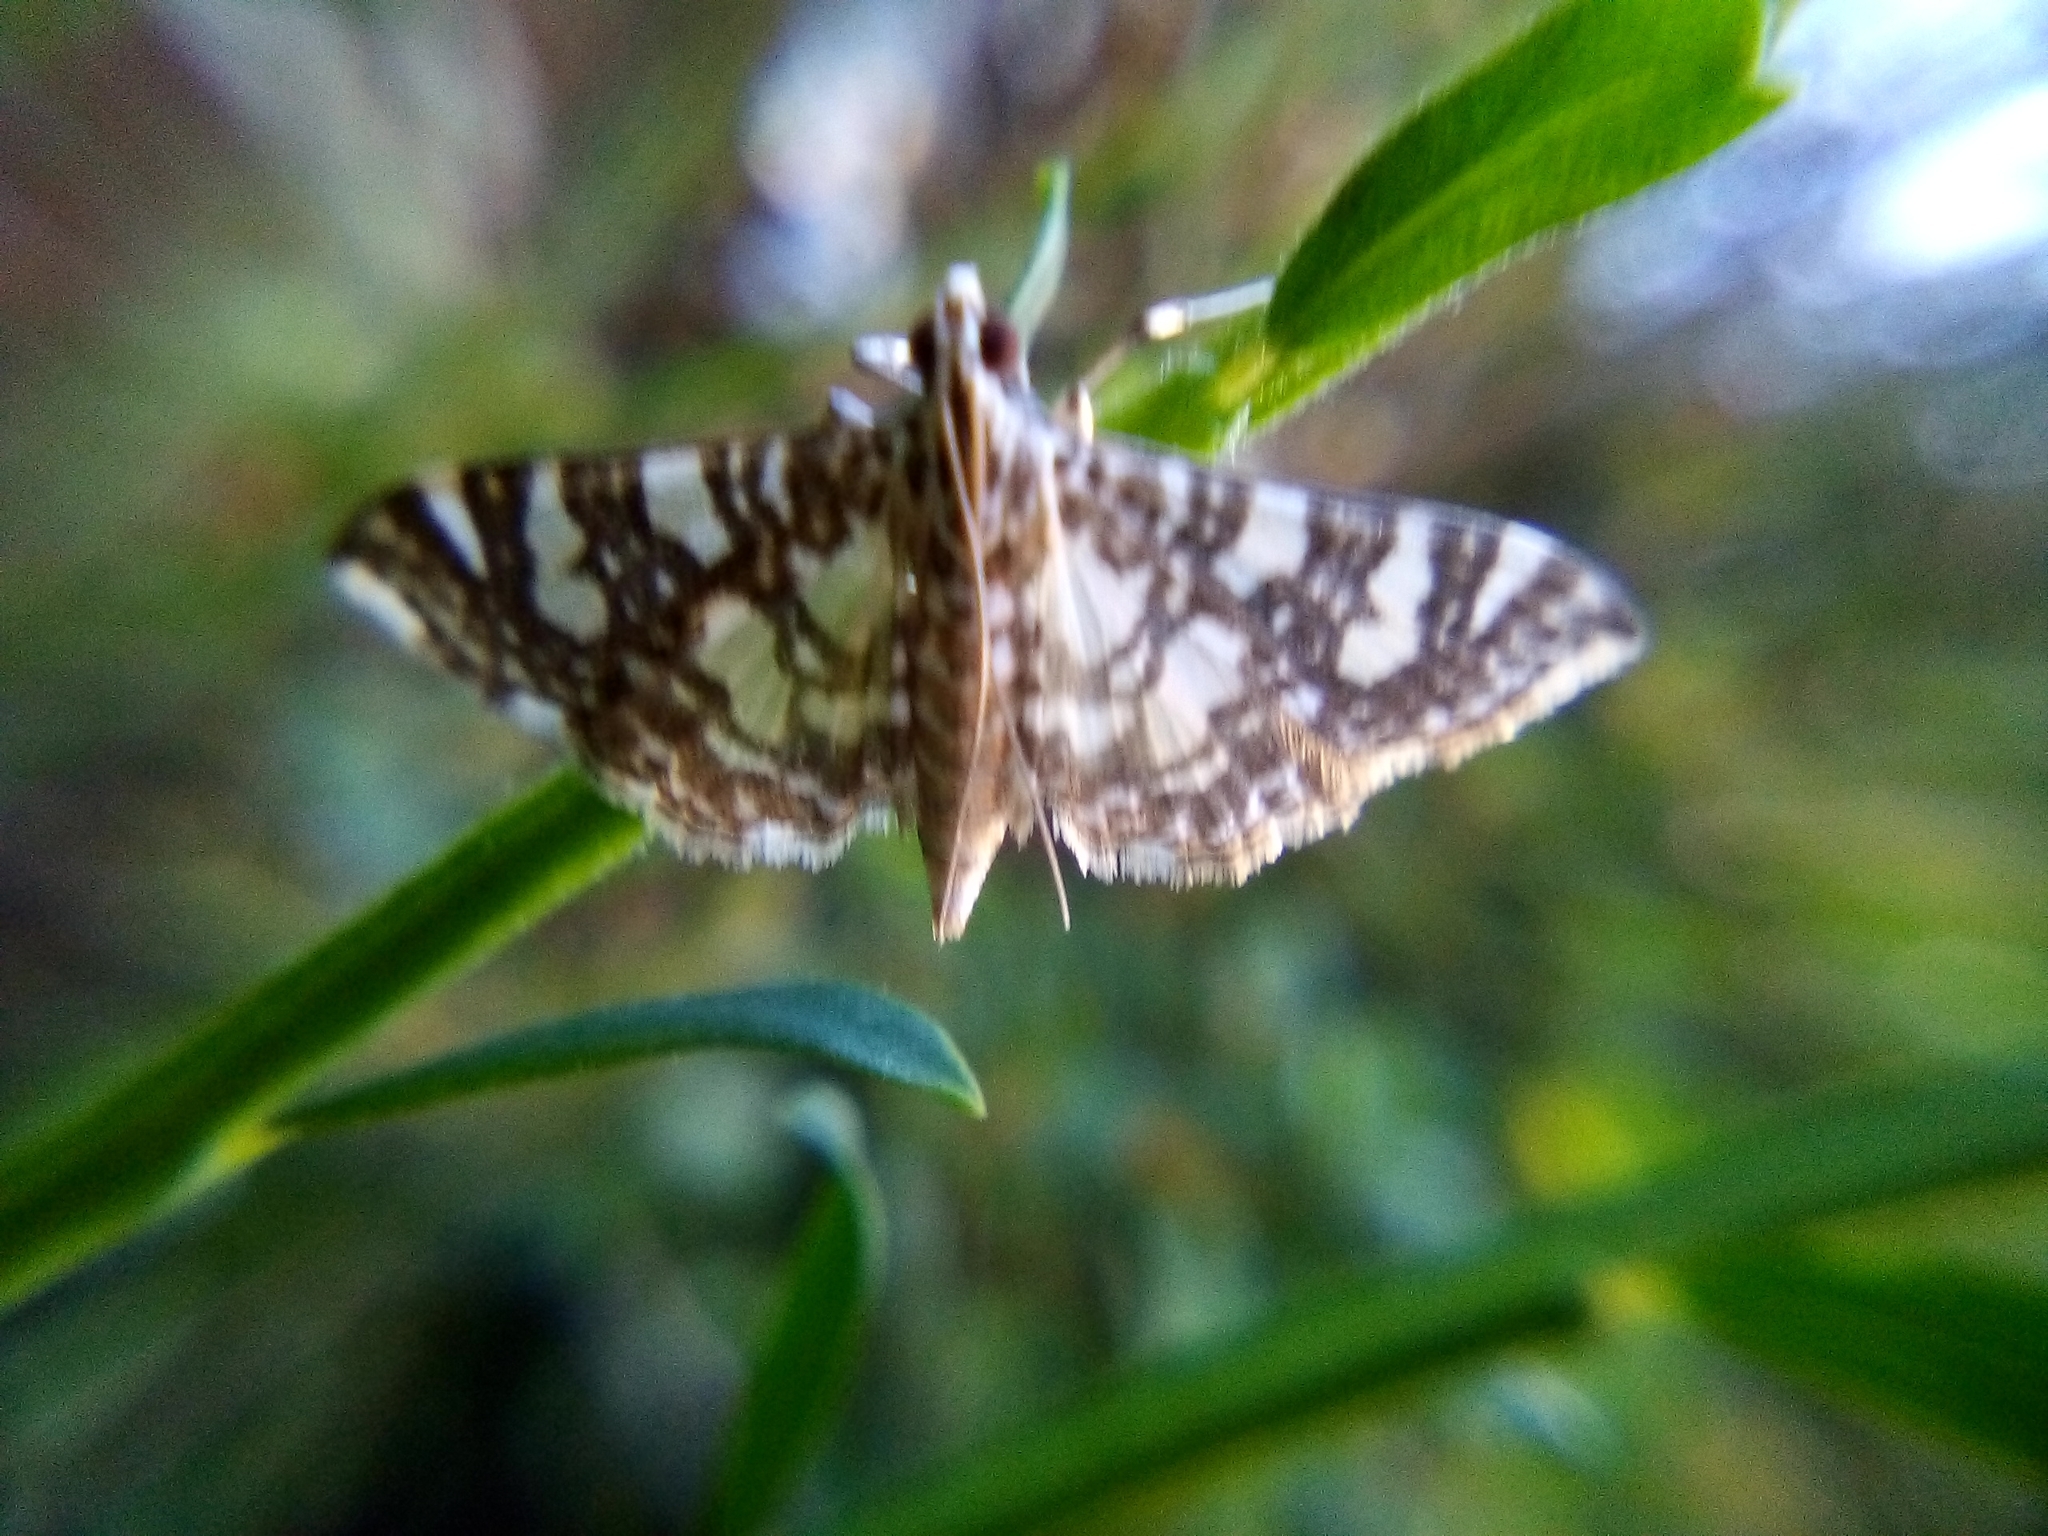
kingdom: Animalia
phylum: Arthropoda
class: Insecta
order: Lepidoptera
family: Crambidae
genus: Glyphodes
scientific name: Glyphodes onychinalis
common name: Swan plant moth
